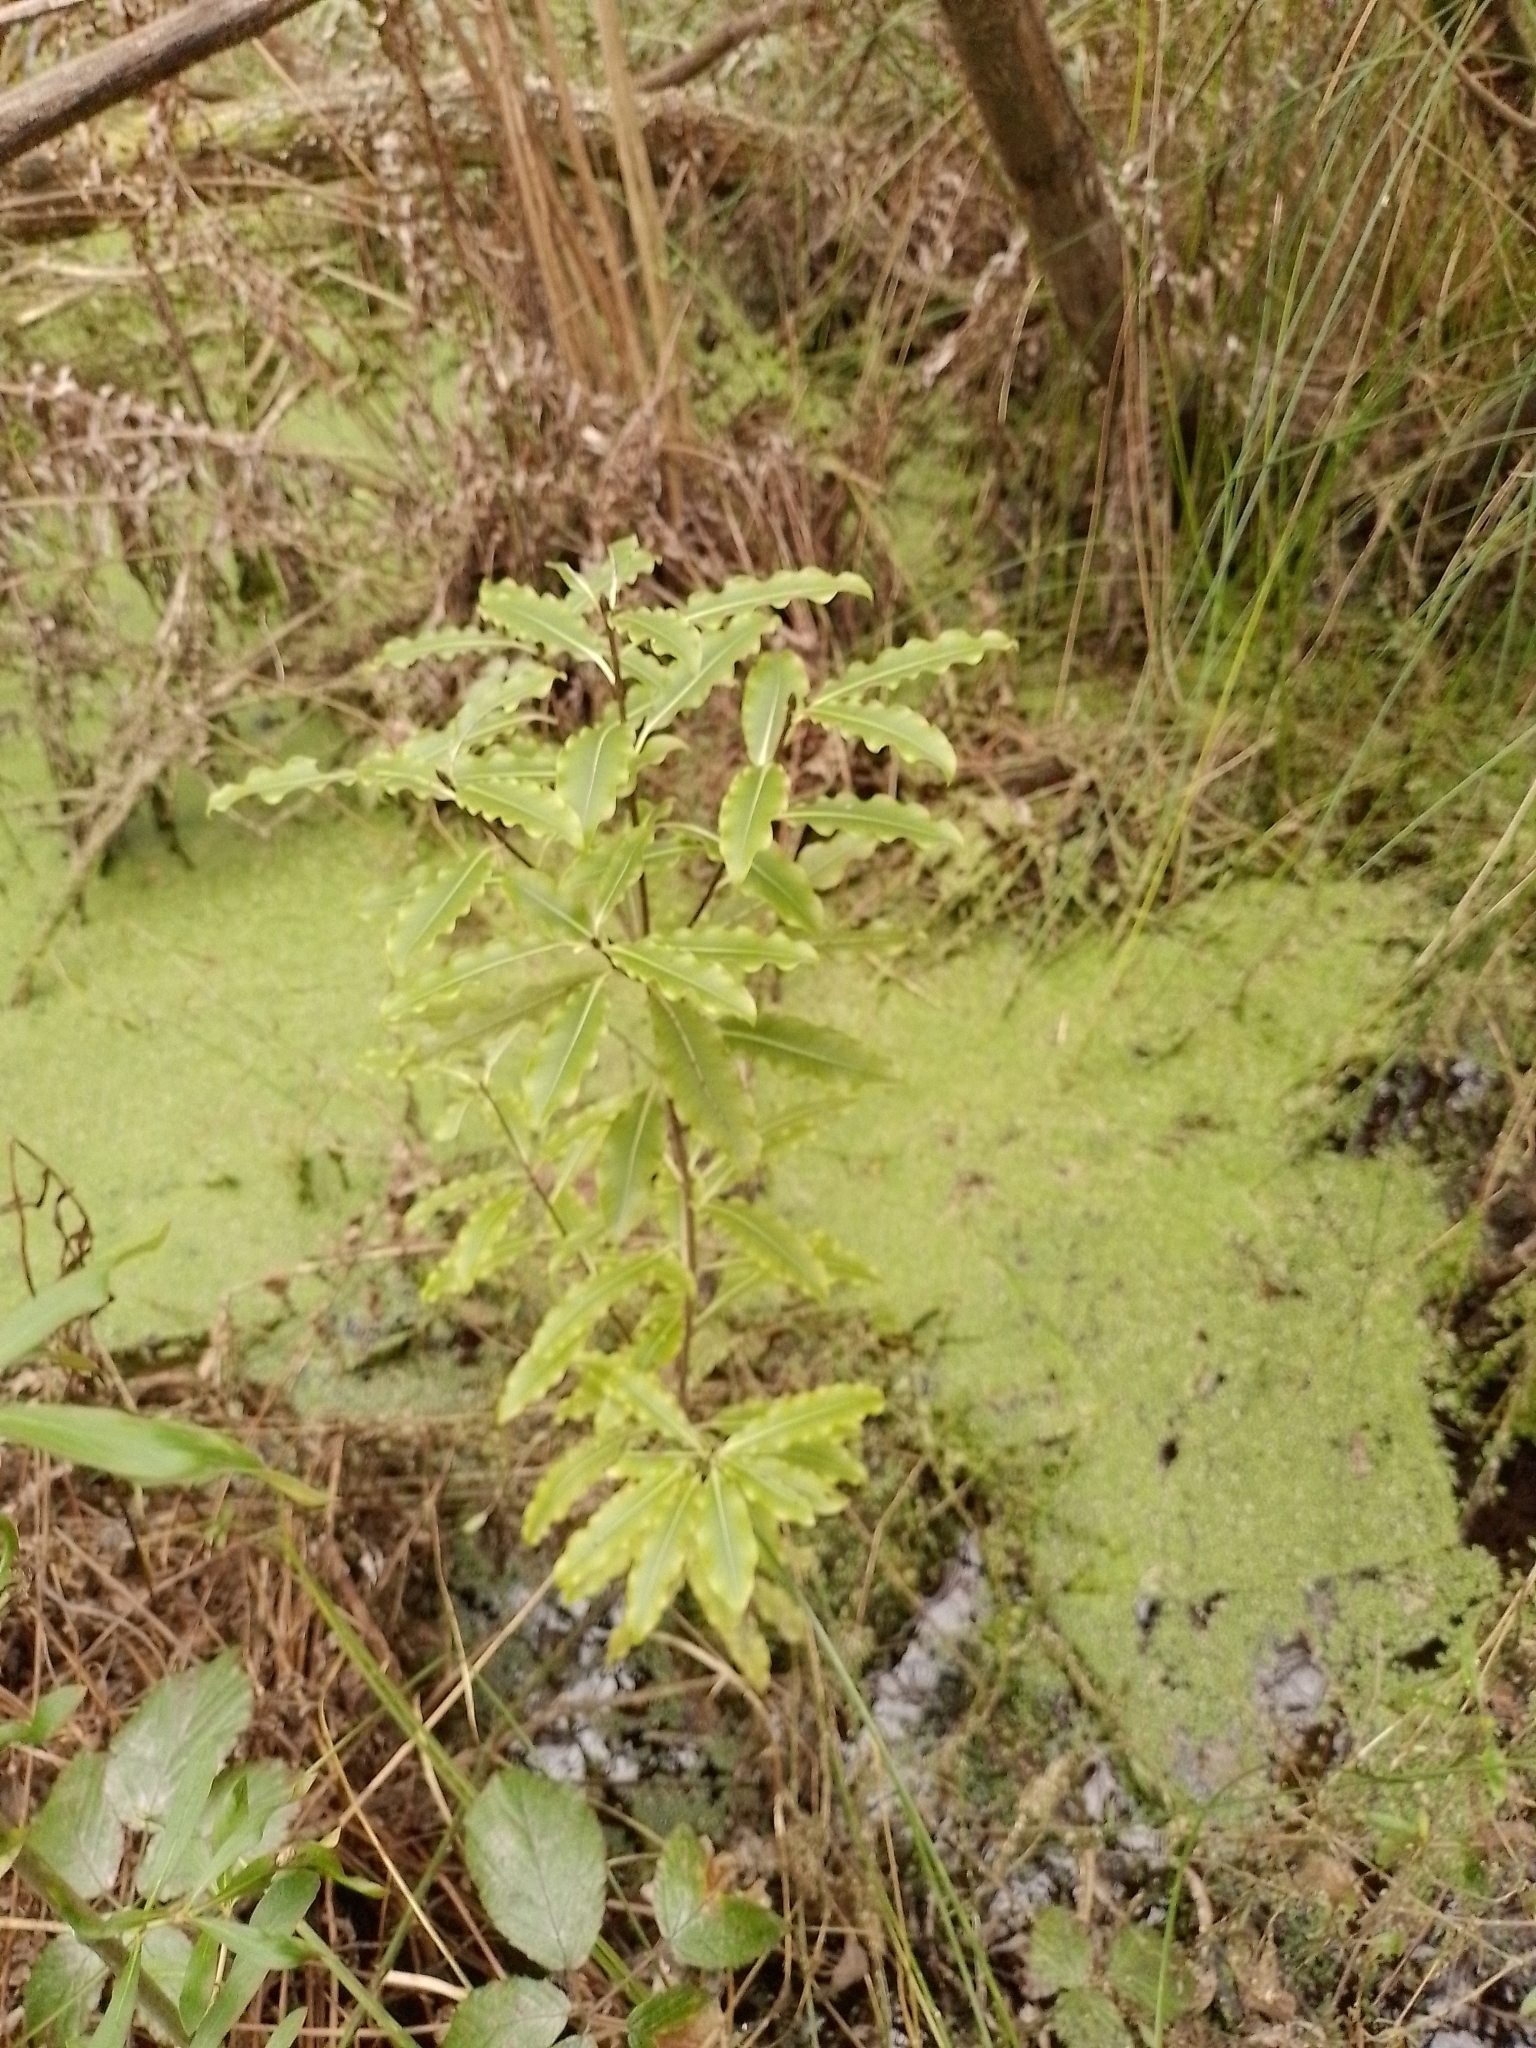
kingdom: Plantae
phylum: Tracheophyta
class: Magnoliopsida
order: Apiales
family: Pittosporaceae
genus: Pittosporum
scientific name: Pittosporum eugenioides
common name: Lemonwood
